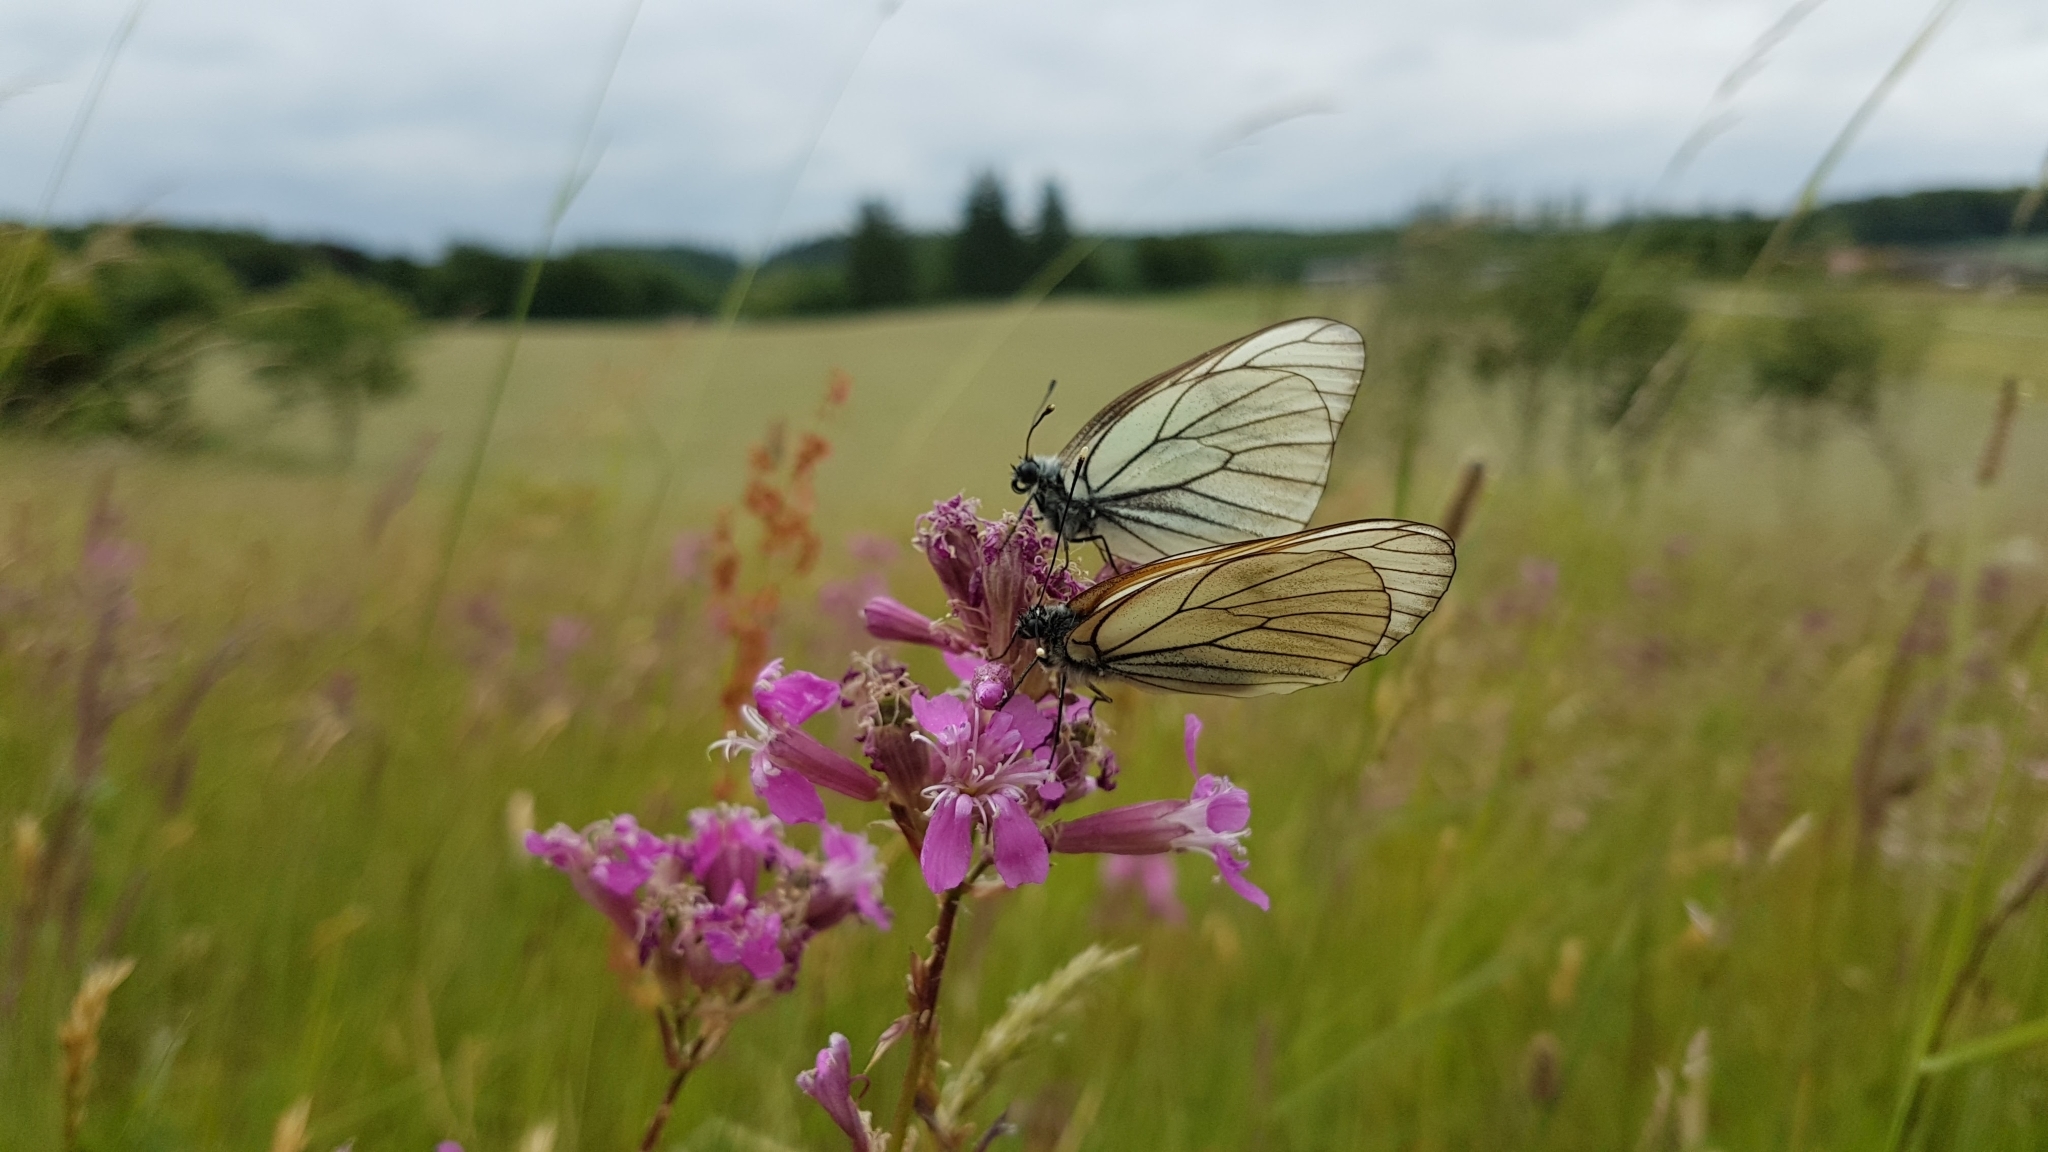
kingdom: Animalia
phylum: Arthropoda
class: Insecta
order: Lepidoptera
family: Pieridae
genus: Aporia
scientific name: Aporia crataegi
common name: Black-veined white
